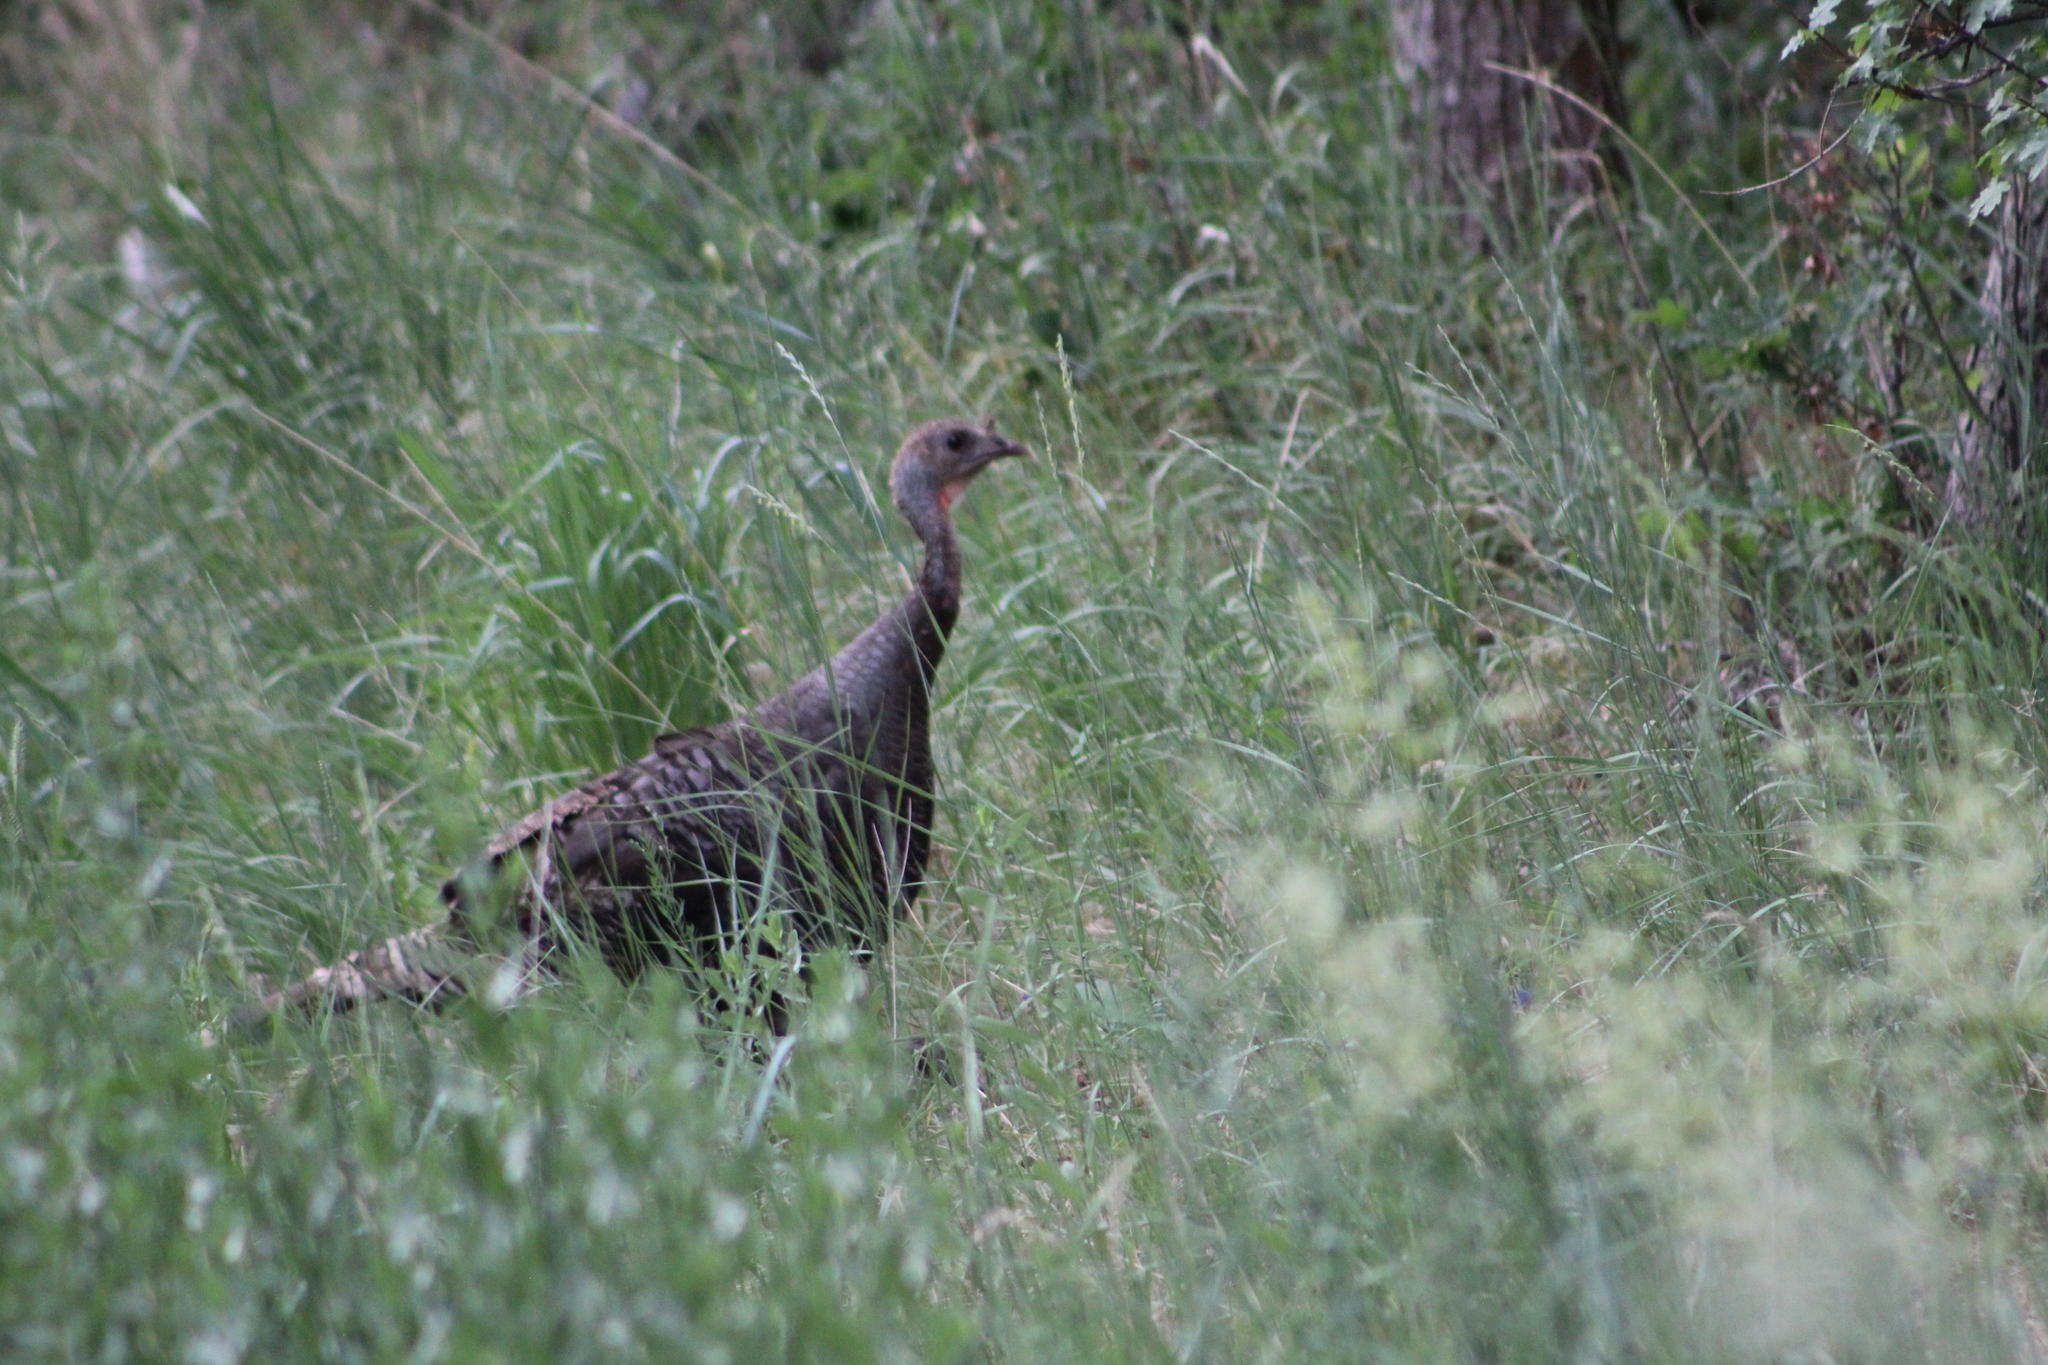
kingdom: Animalia
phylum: Chordata
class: Aves
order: Galliformes
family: Phasianidae
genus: Meleagris
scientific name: Meleagris gallopavo
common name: Wild turkey
